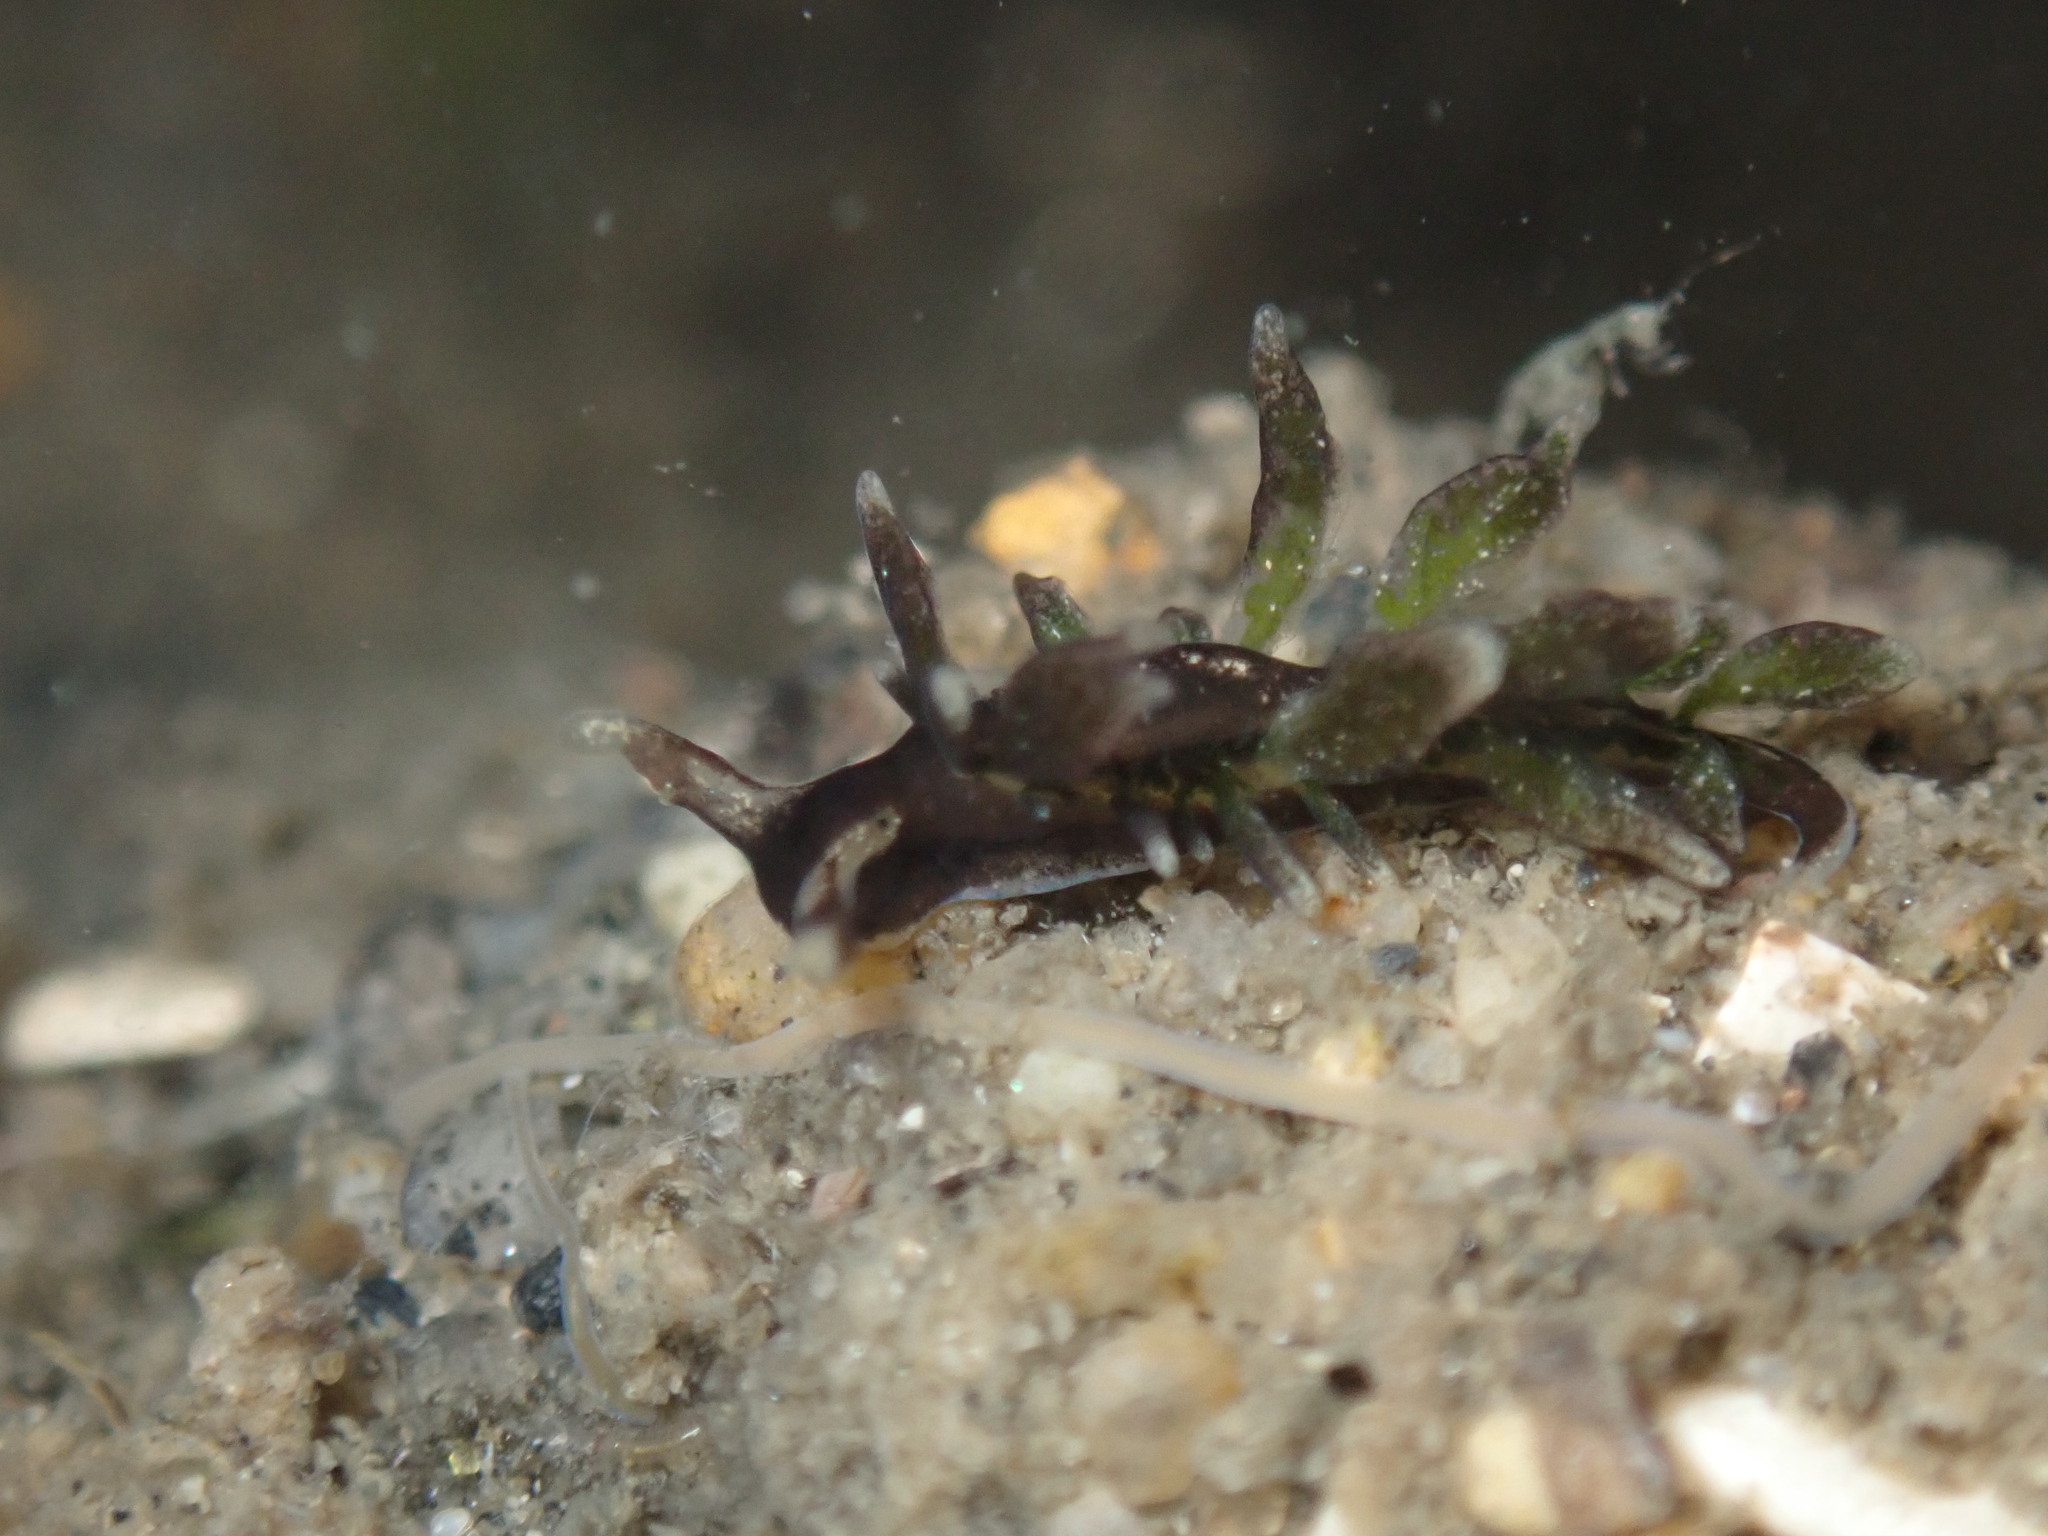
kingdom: Animalia
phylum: Mollusca
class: Gastropoda
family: Hermaeidae
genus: Aplysiopsis
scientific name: Aplysiopsis enteromorphae
